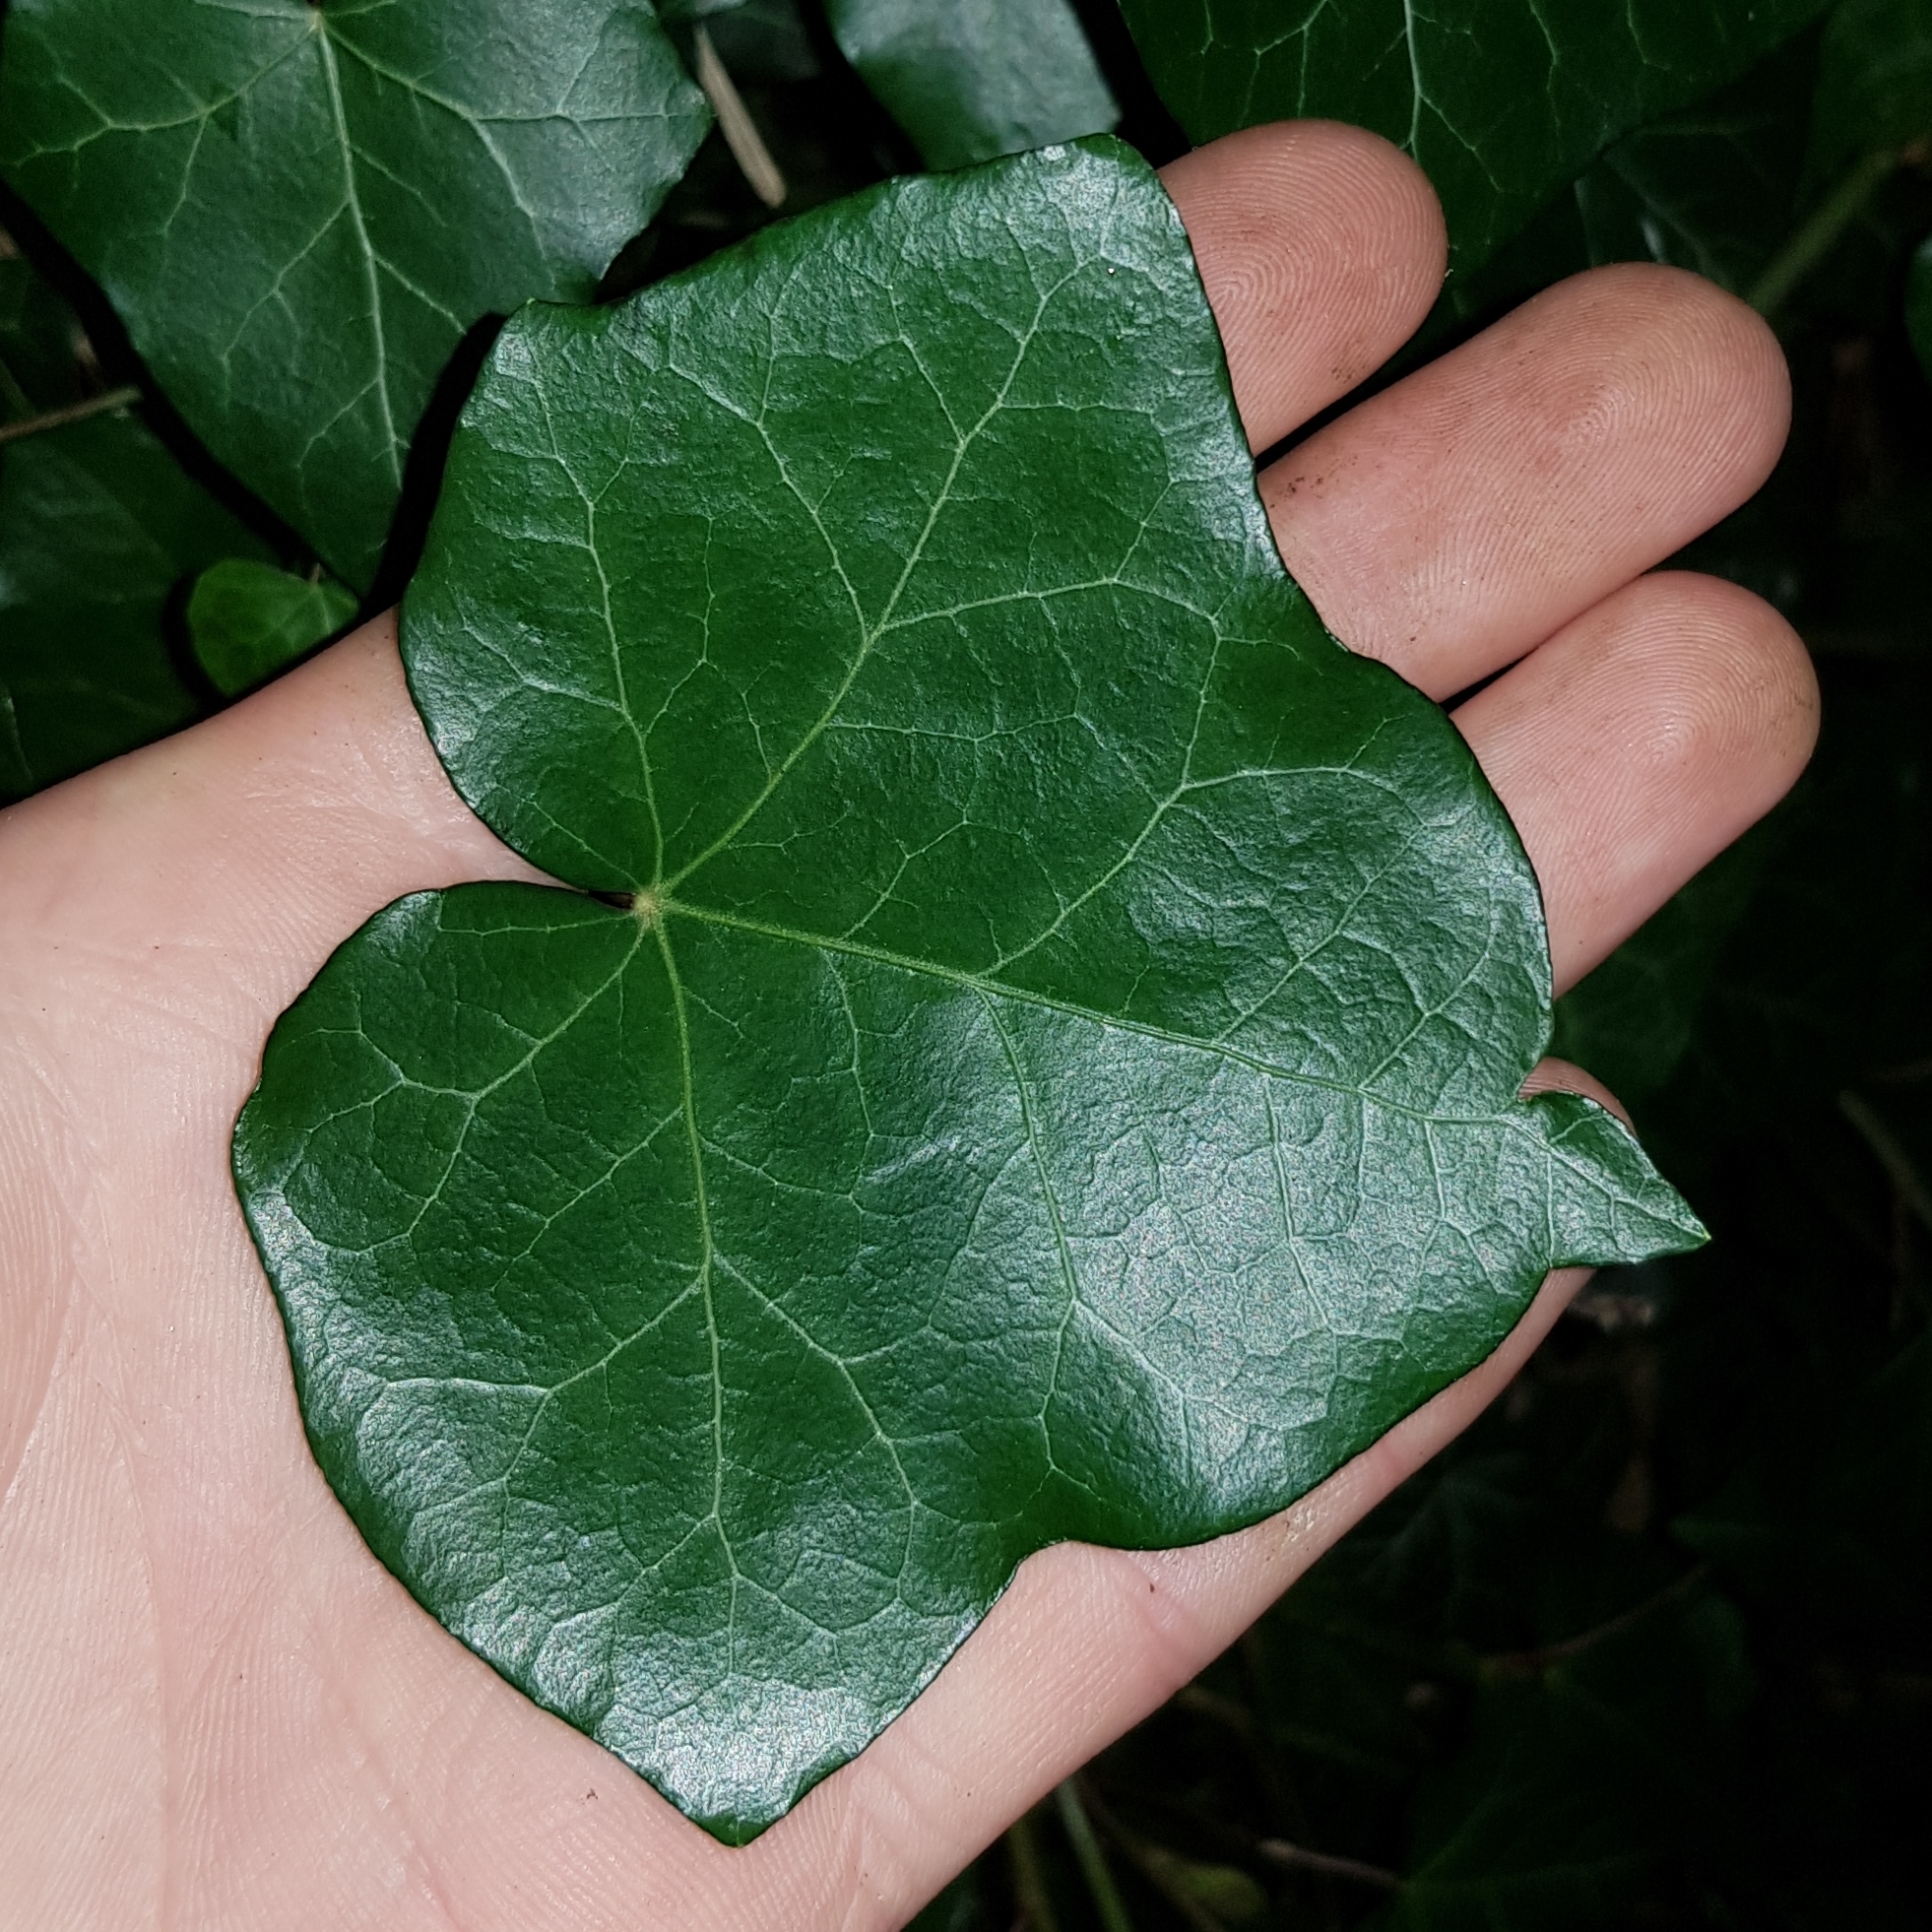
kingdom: Plantae
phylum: Tracheophyta
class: Magnoliopsida
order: Apiales
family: Araliaceae
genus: Hedera
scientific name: Hedera helix
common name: Ivy
